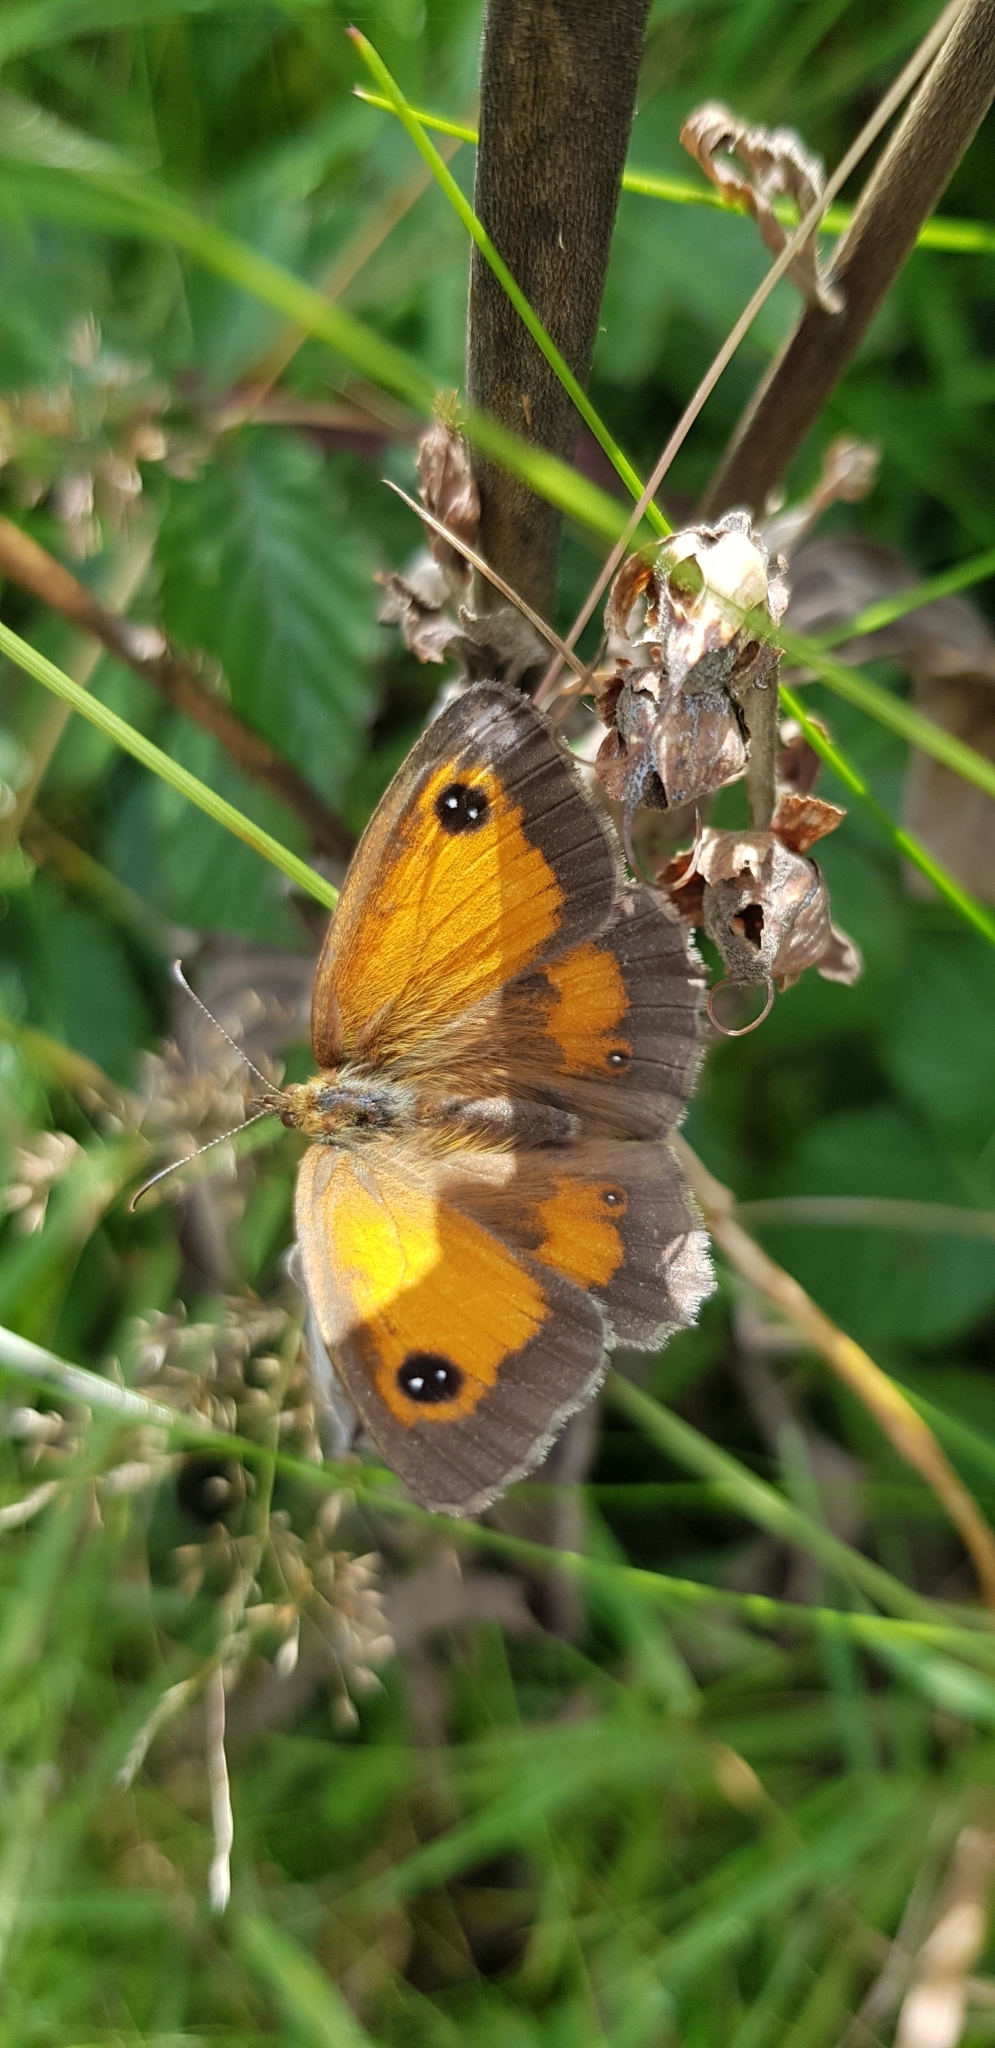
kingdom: Animalia
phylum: Arthropoda
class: Insecta
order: Lepidoptera
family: Nymphalidae
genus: Pyronia
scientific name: Pyronia tithonus
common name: Gatekeeper
